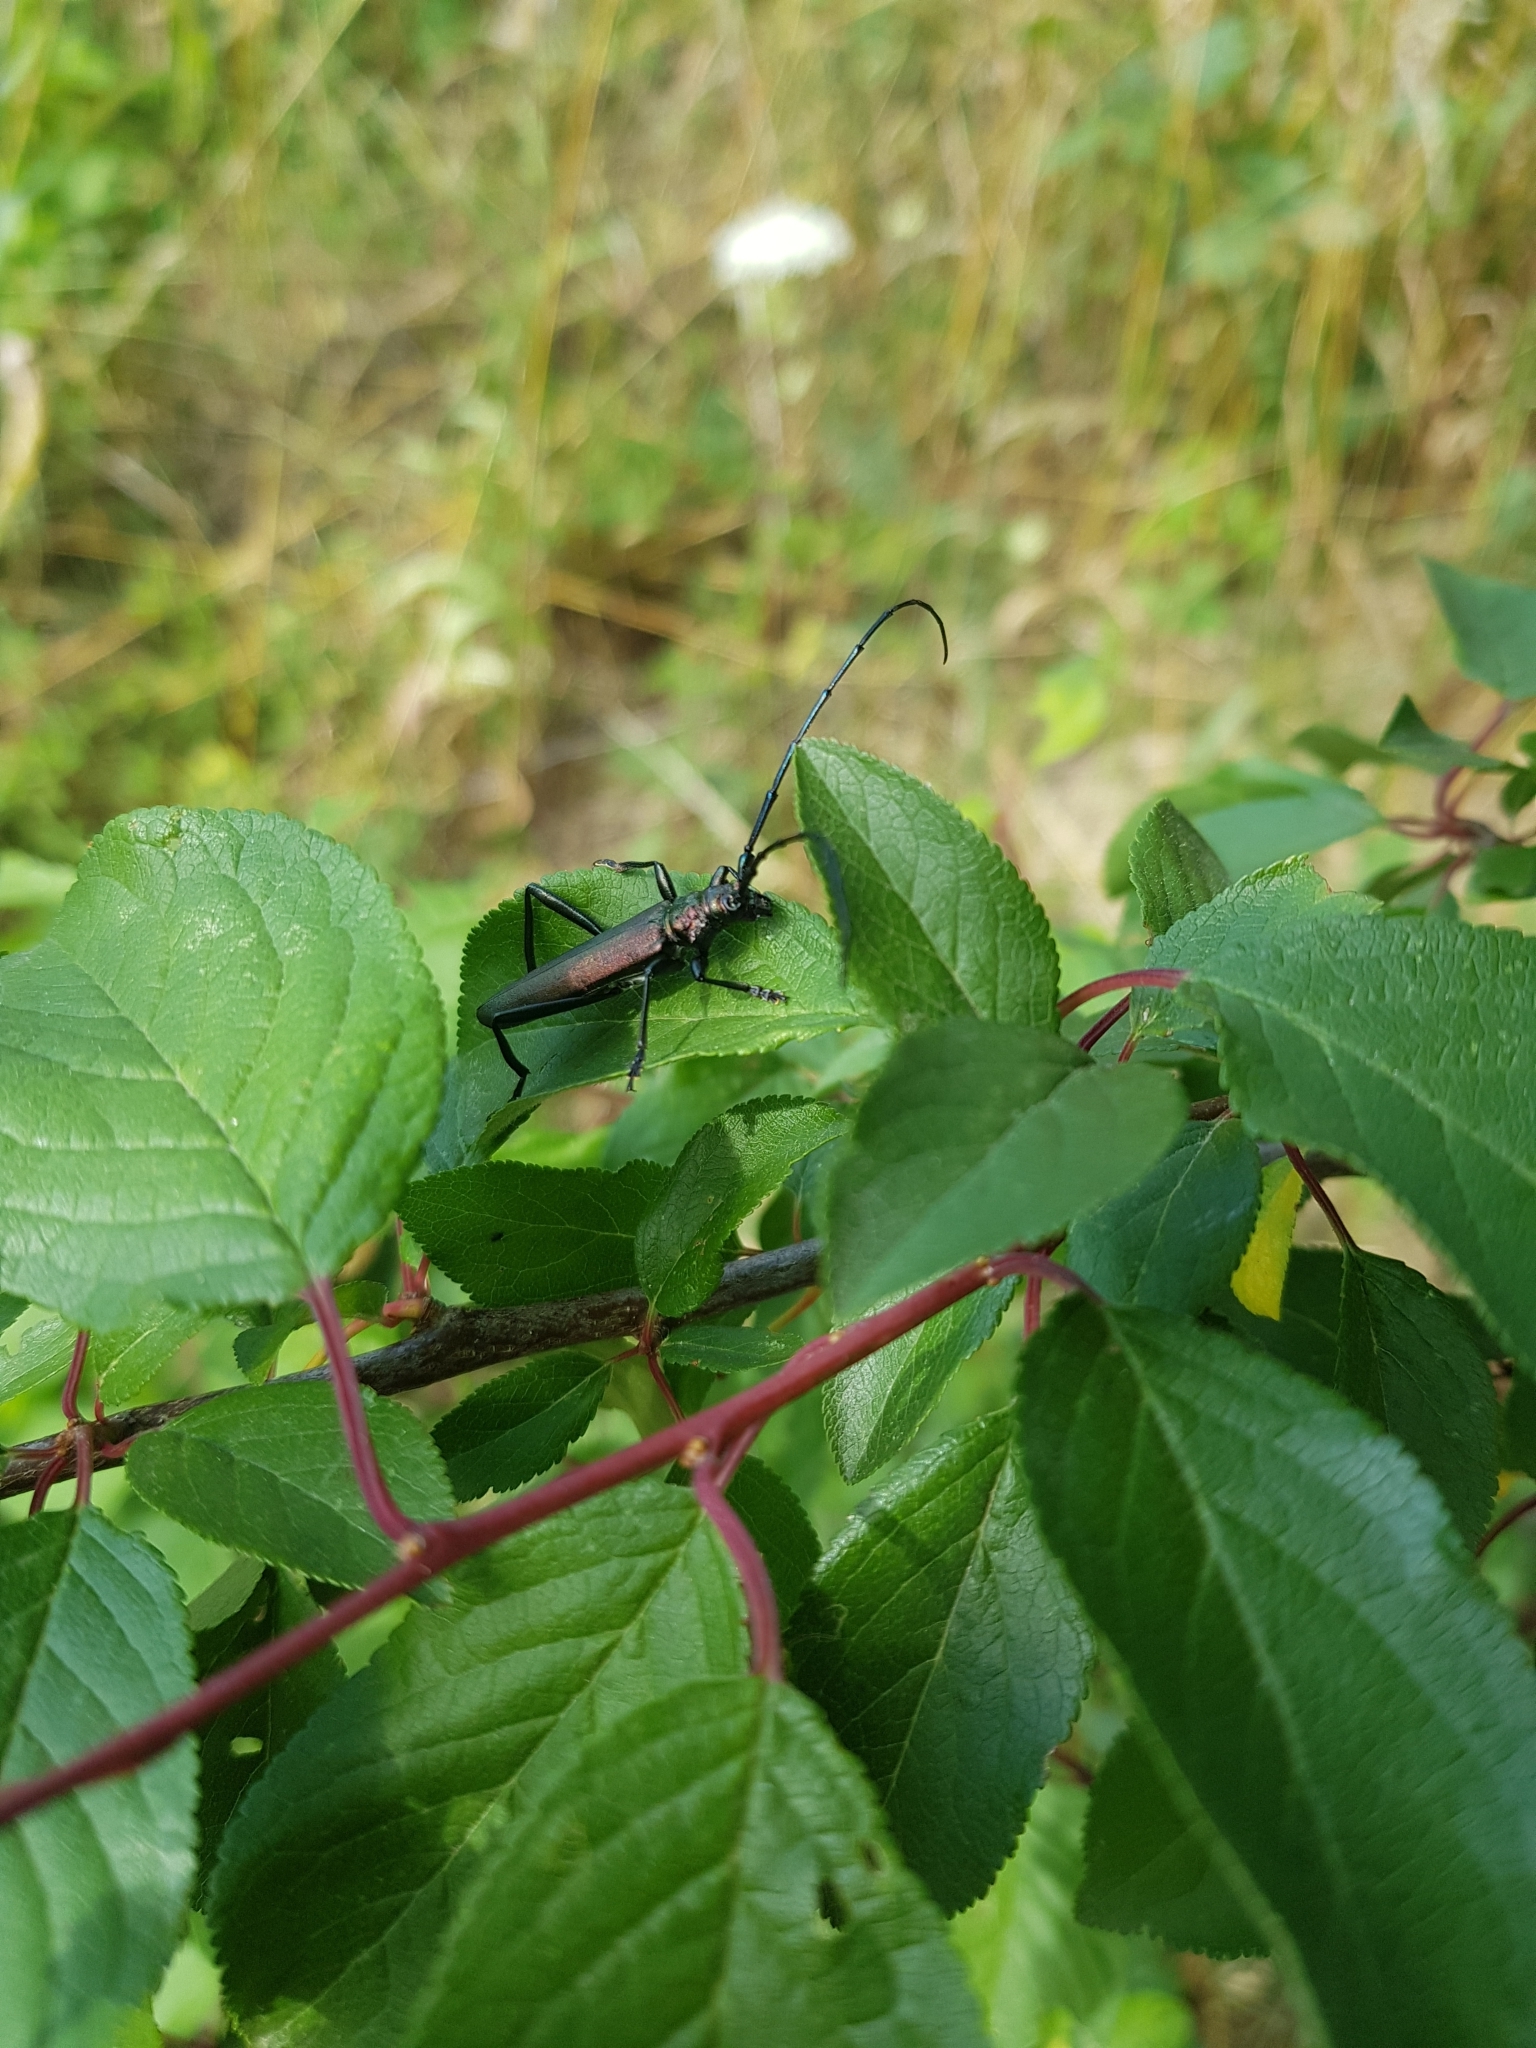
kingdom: Animalia
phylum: Arthropoda
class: Insecta
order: Coleoptera
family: Cerambycidae
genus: Aromia
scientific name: Aromia moschata
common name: Musk beetle
